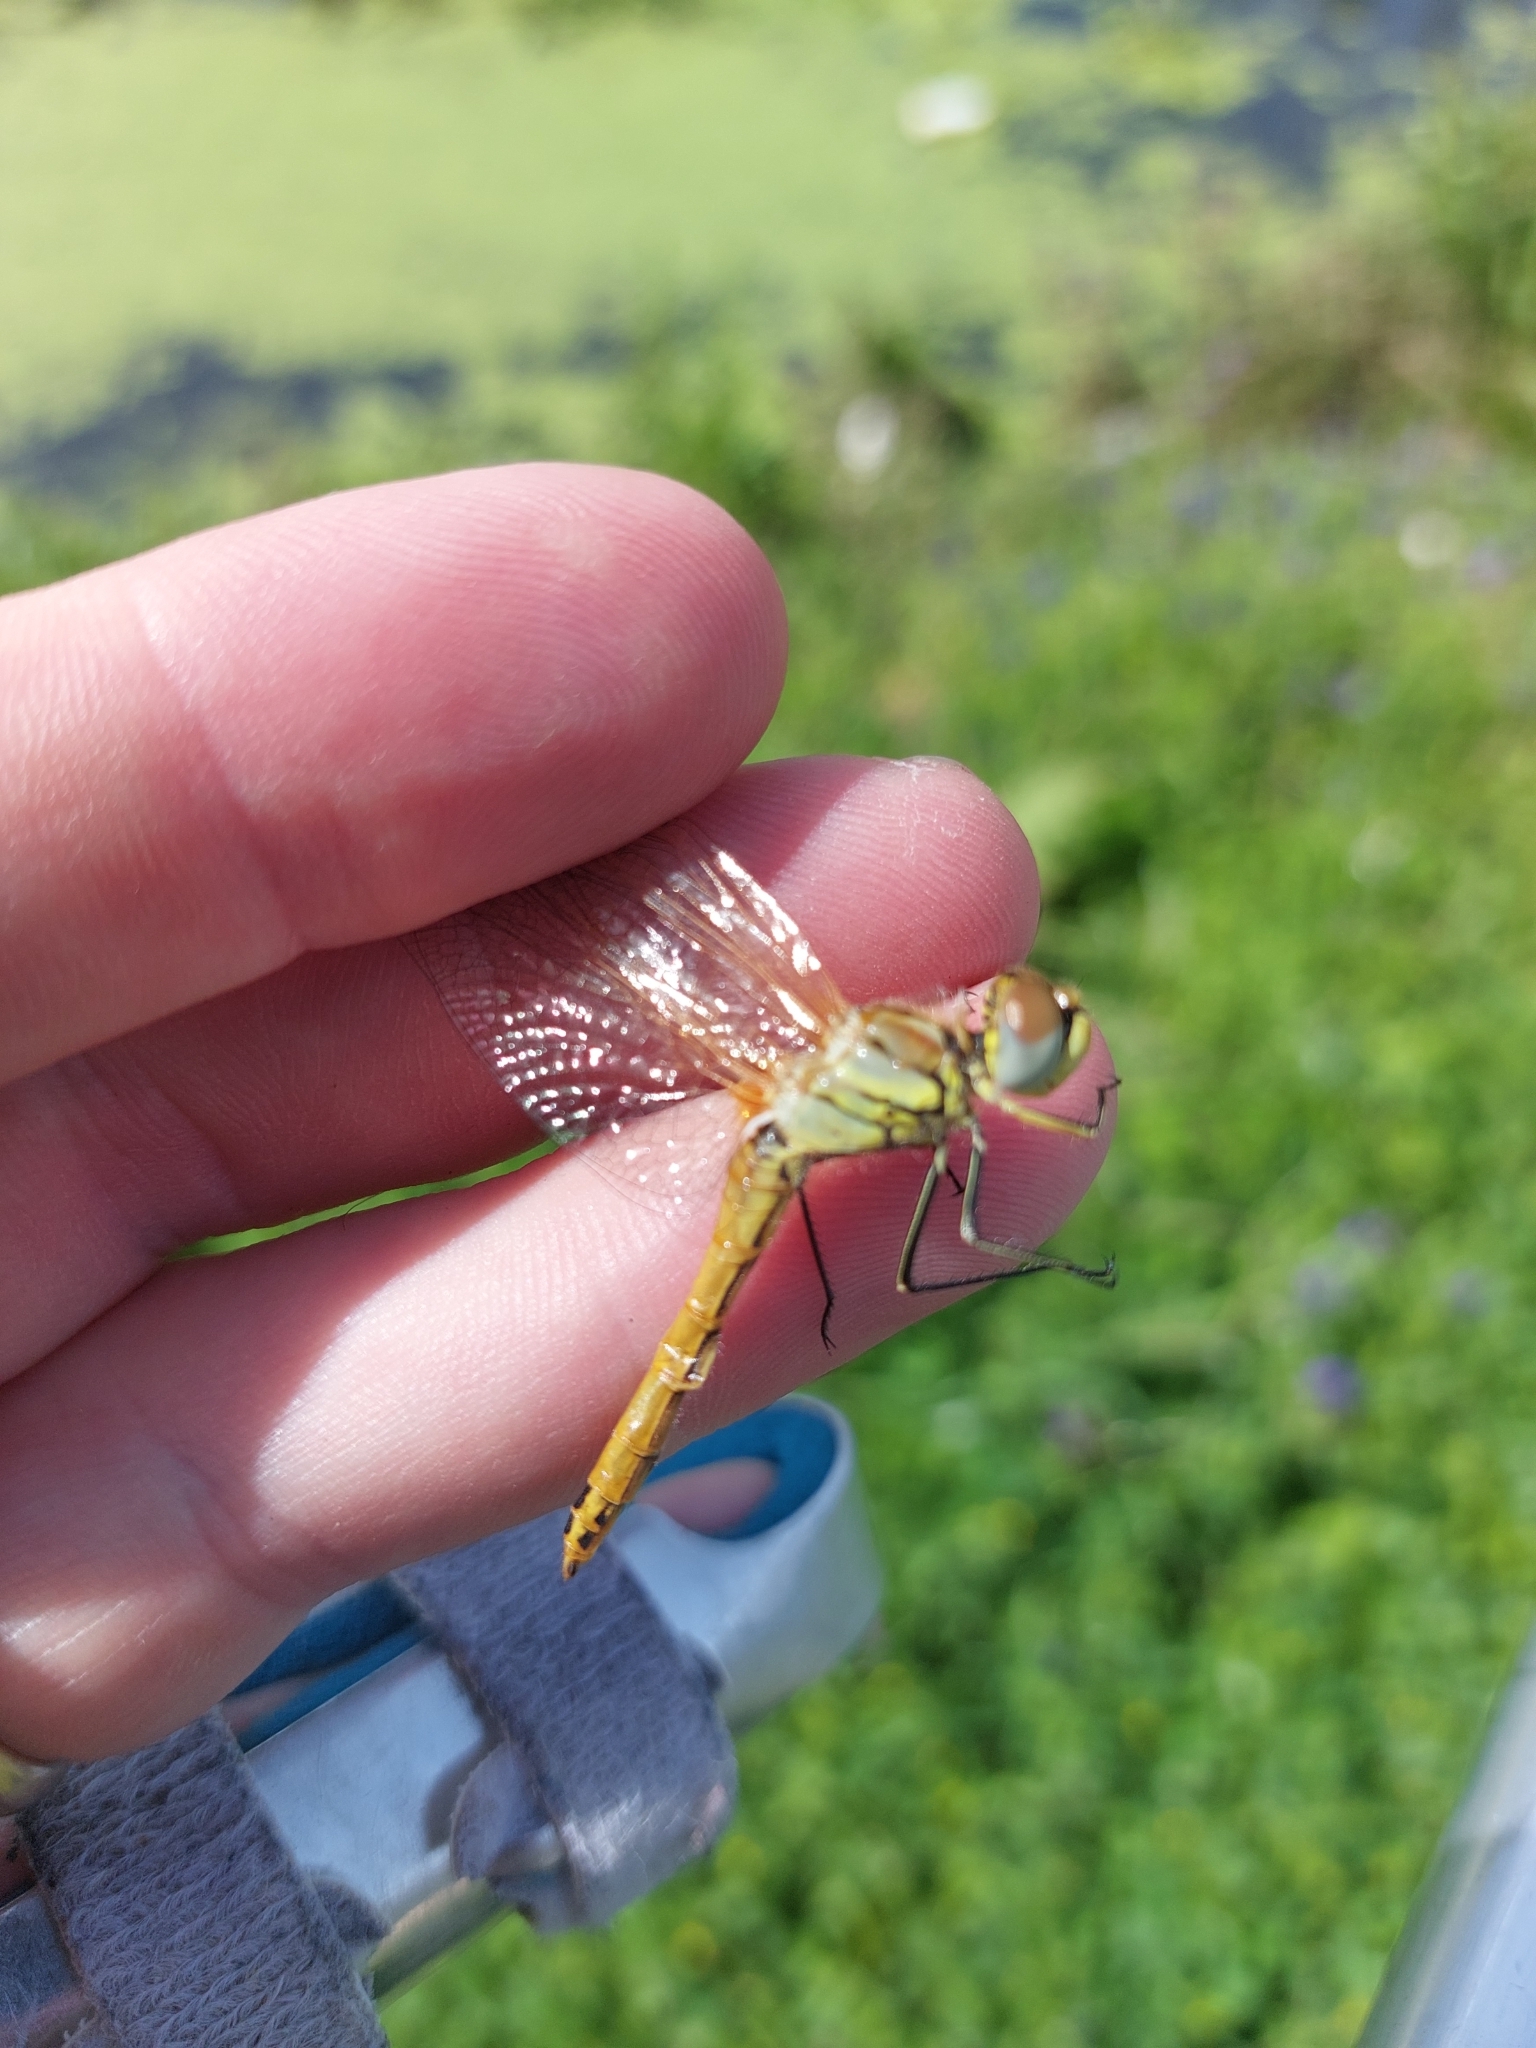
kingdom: Animalia
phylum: Arthropoda
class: Insecta
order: Odonata
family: Libellulidae
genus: Sympetrum
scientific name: Sympetrum fonscolombii
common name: Red-veined darter
